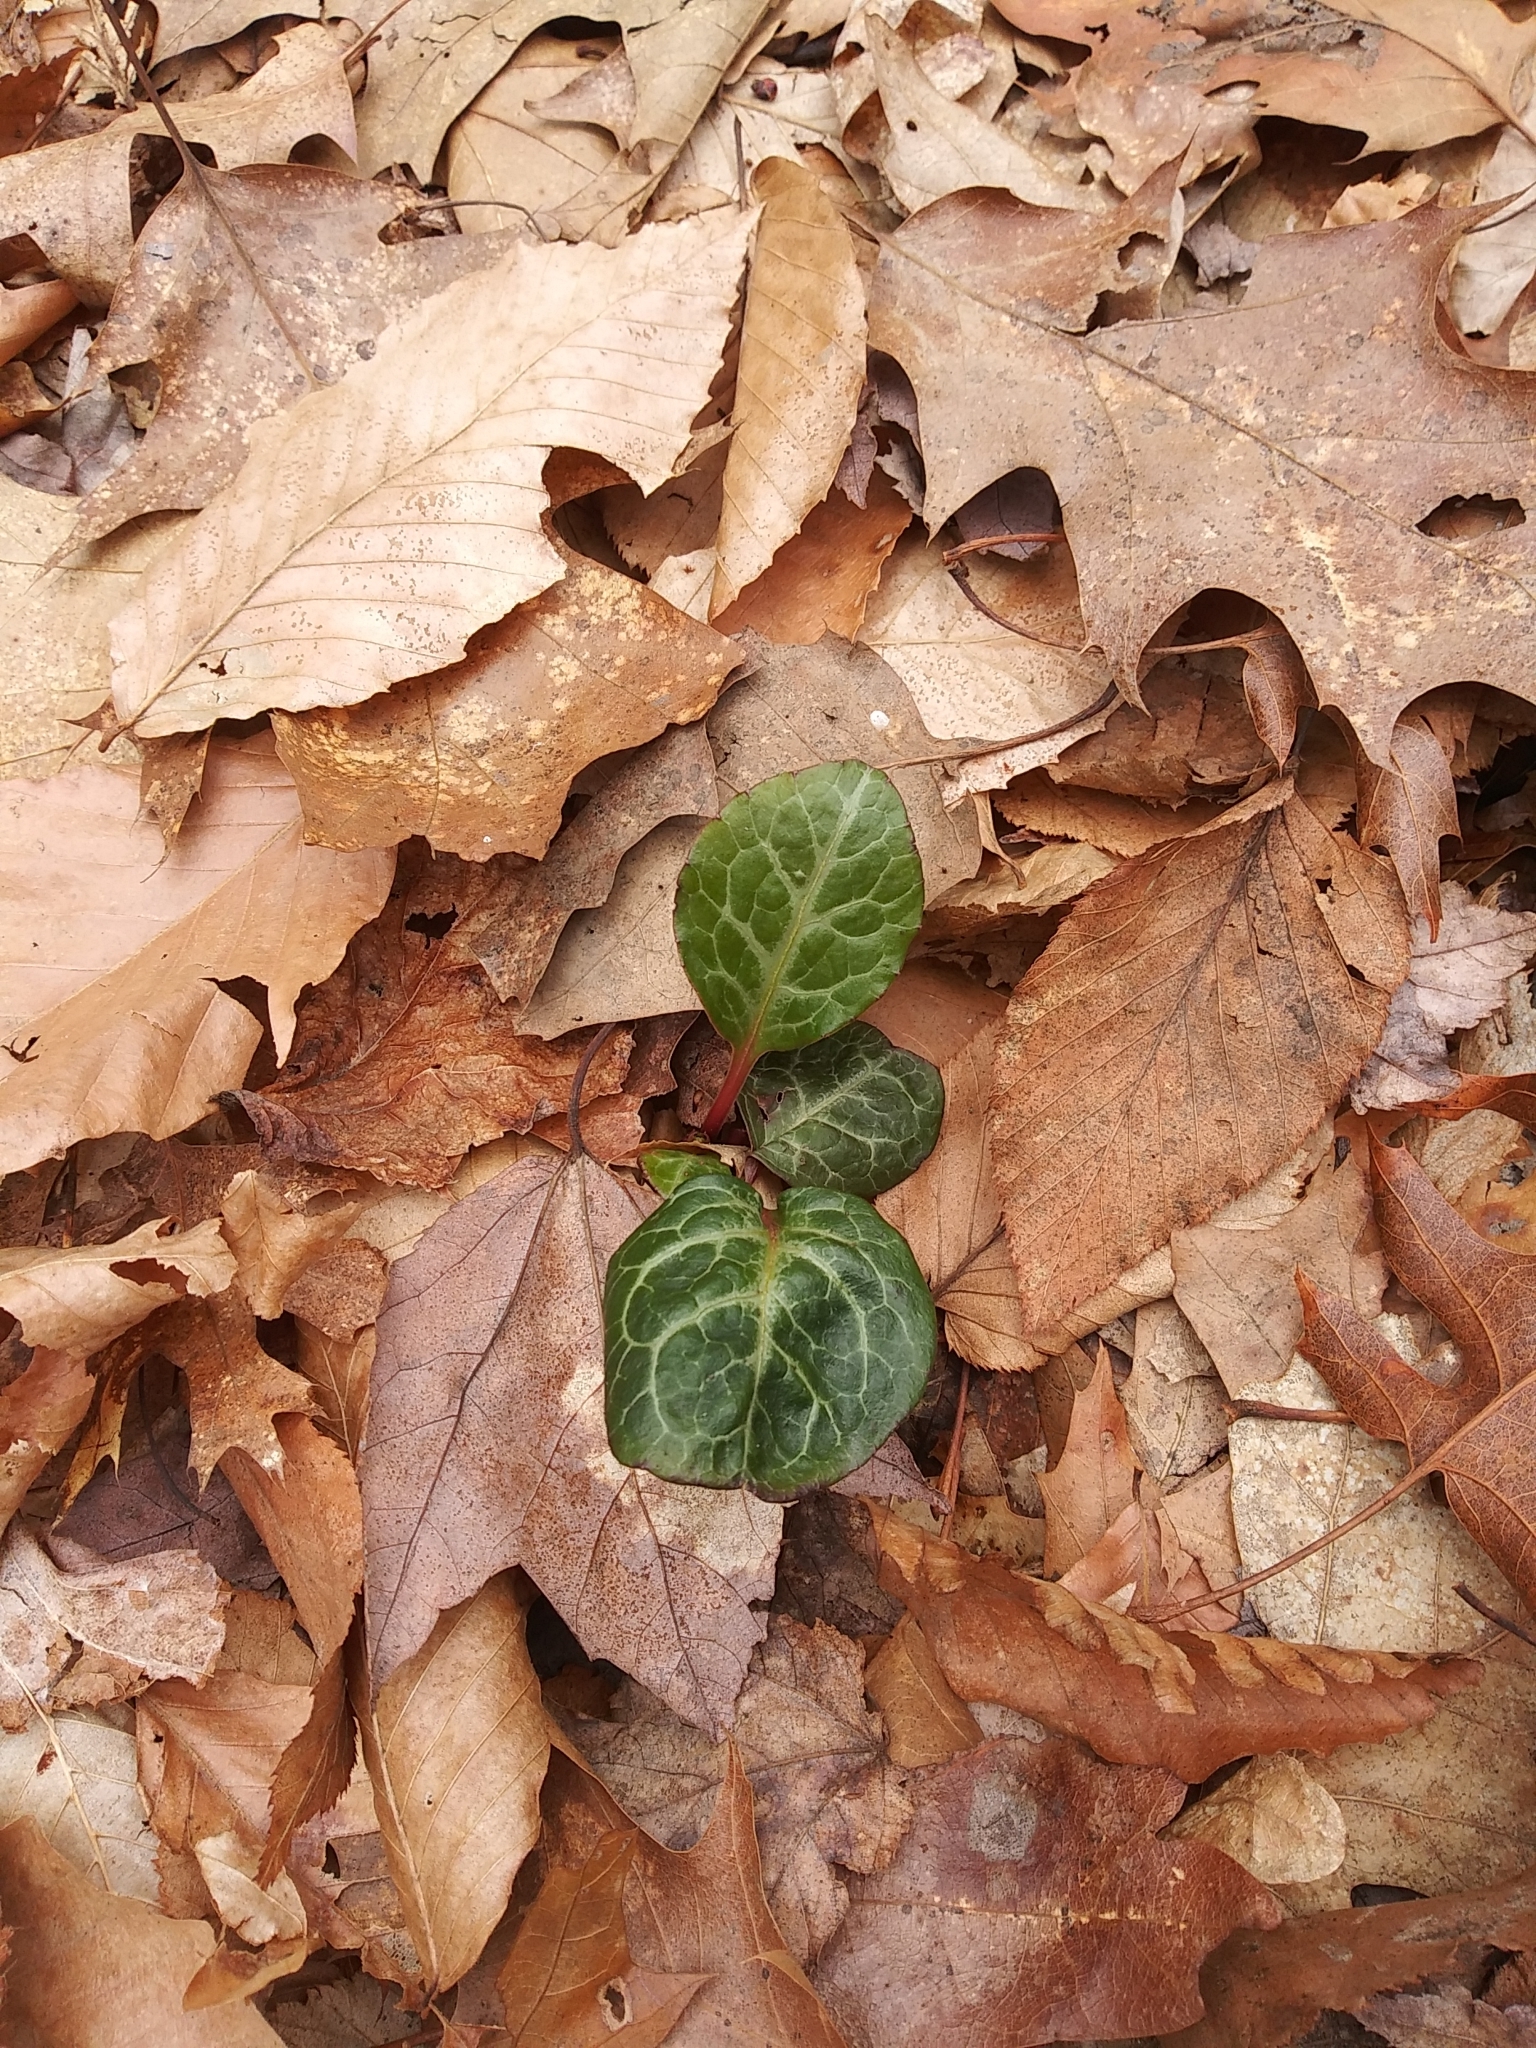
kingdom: Plantae
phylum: Tracheophyta
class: Magnoliopsida
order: Ericales
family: Ericaceae
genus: Pyrola
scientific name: Pyrola americana
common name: American wintergreen
